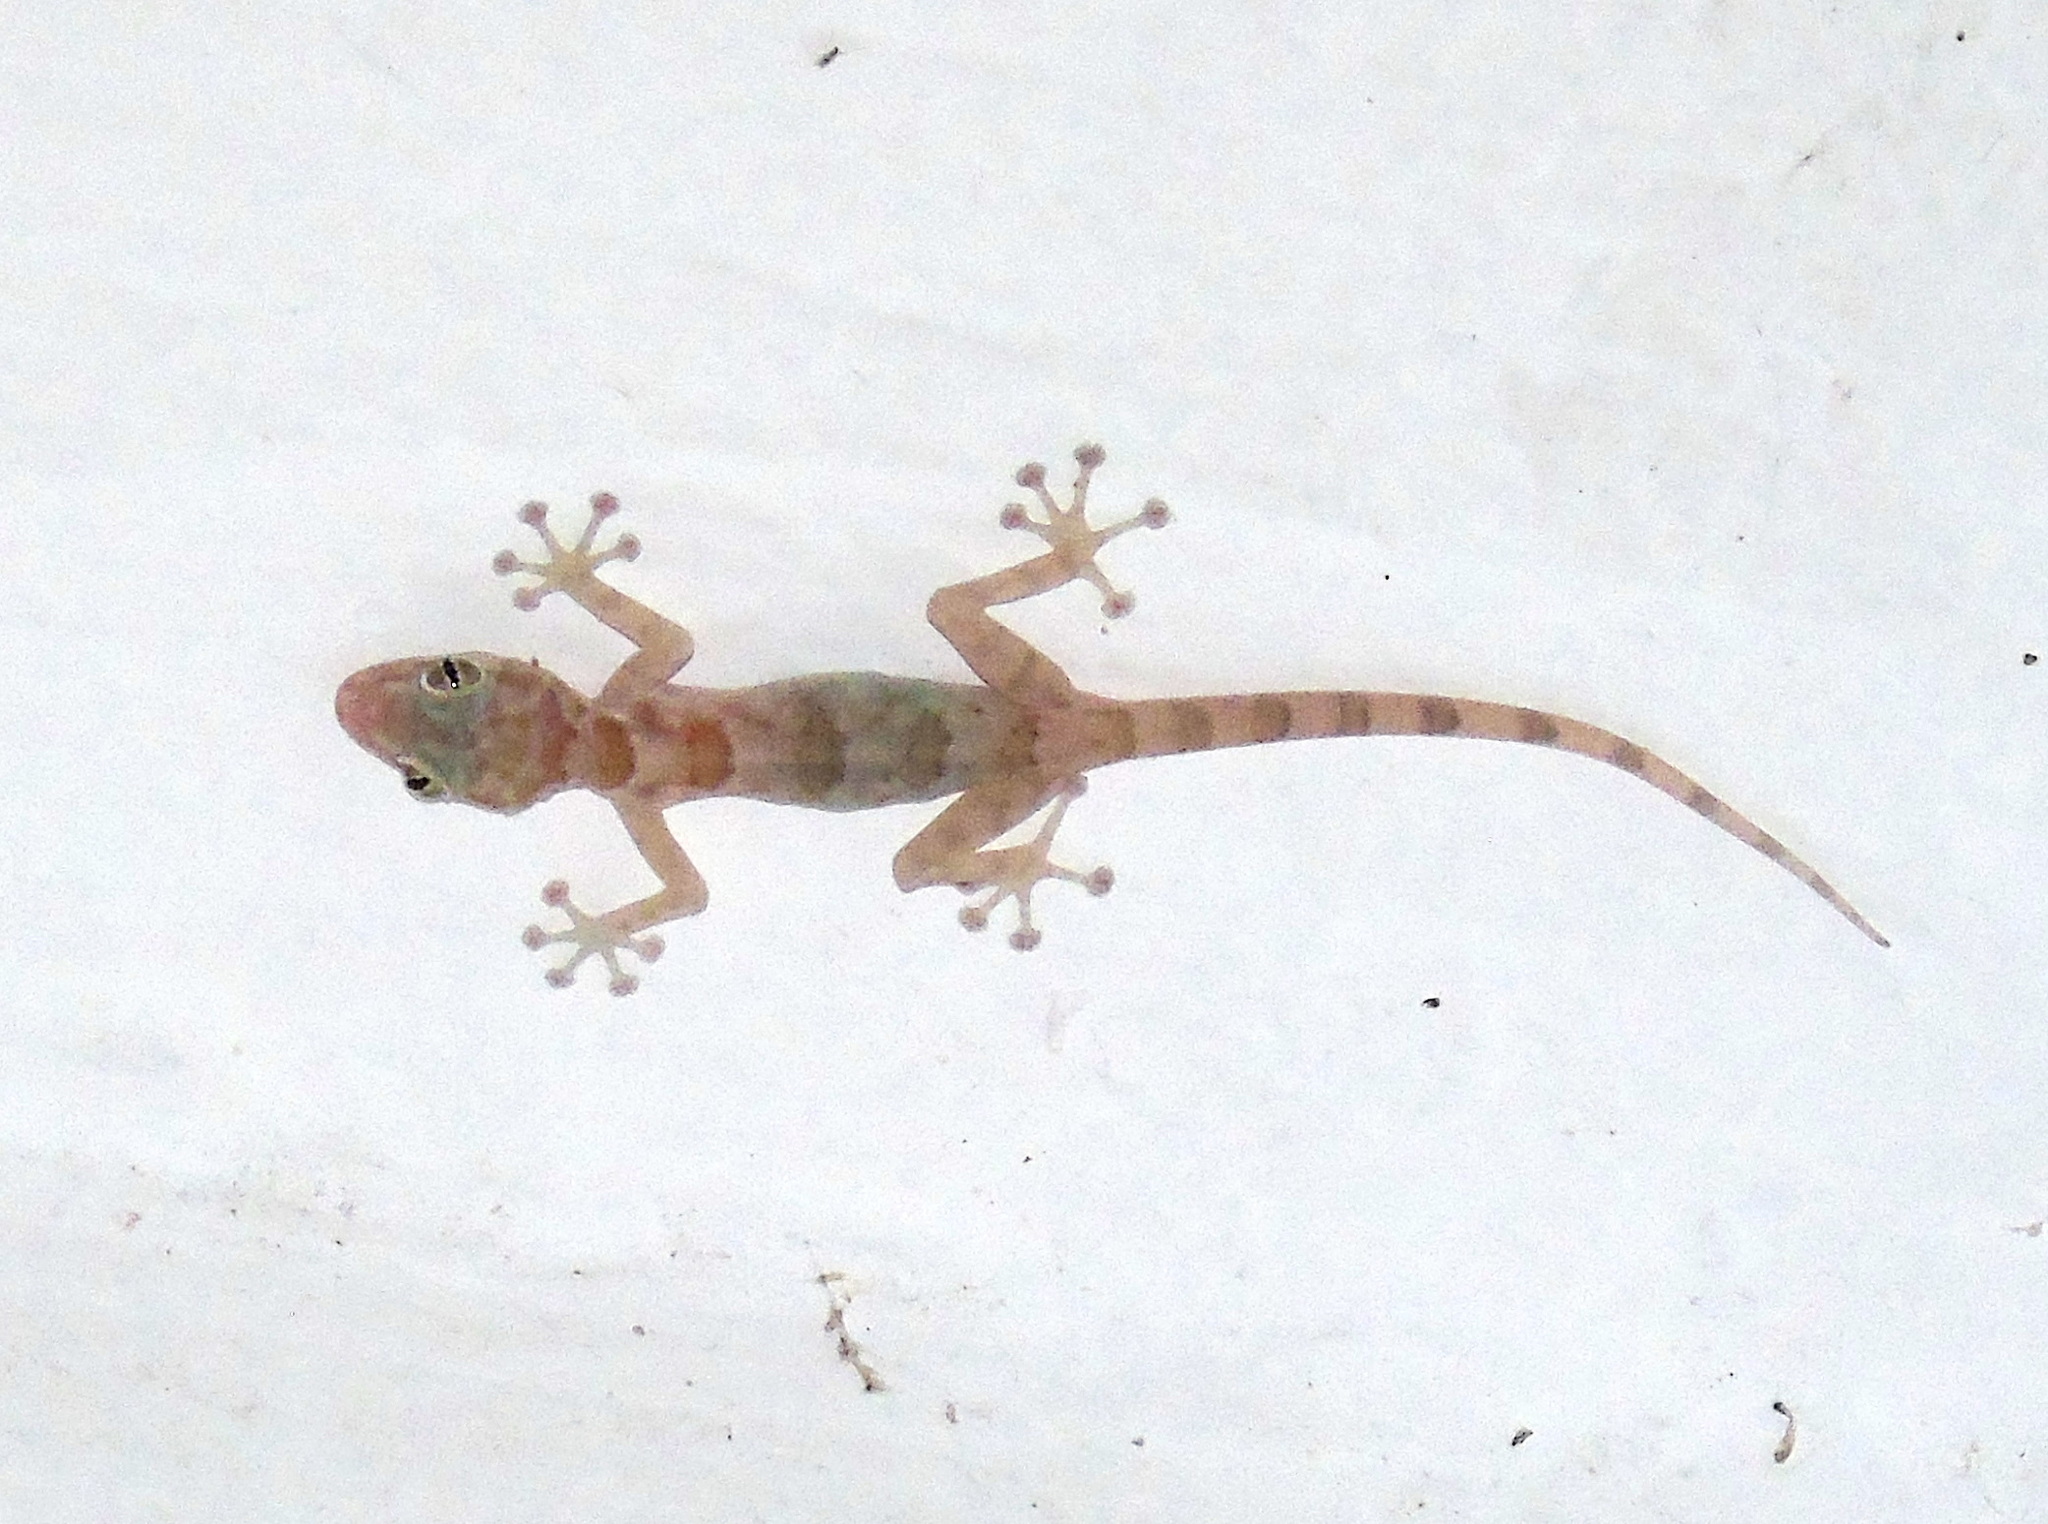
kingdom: Animalia
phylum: Chordata
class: Squamata
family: Phyllodactylidae
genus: Ptyodactylus
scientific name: Ptyodactylus hasselquistii
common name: Hasselquist’s fan-footed gecko
